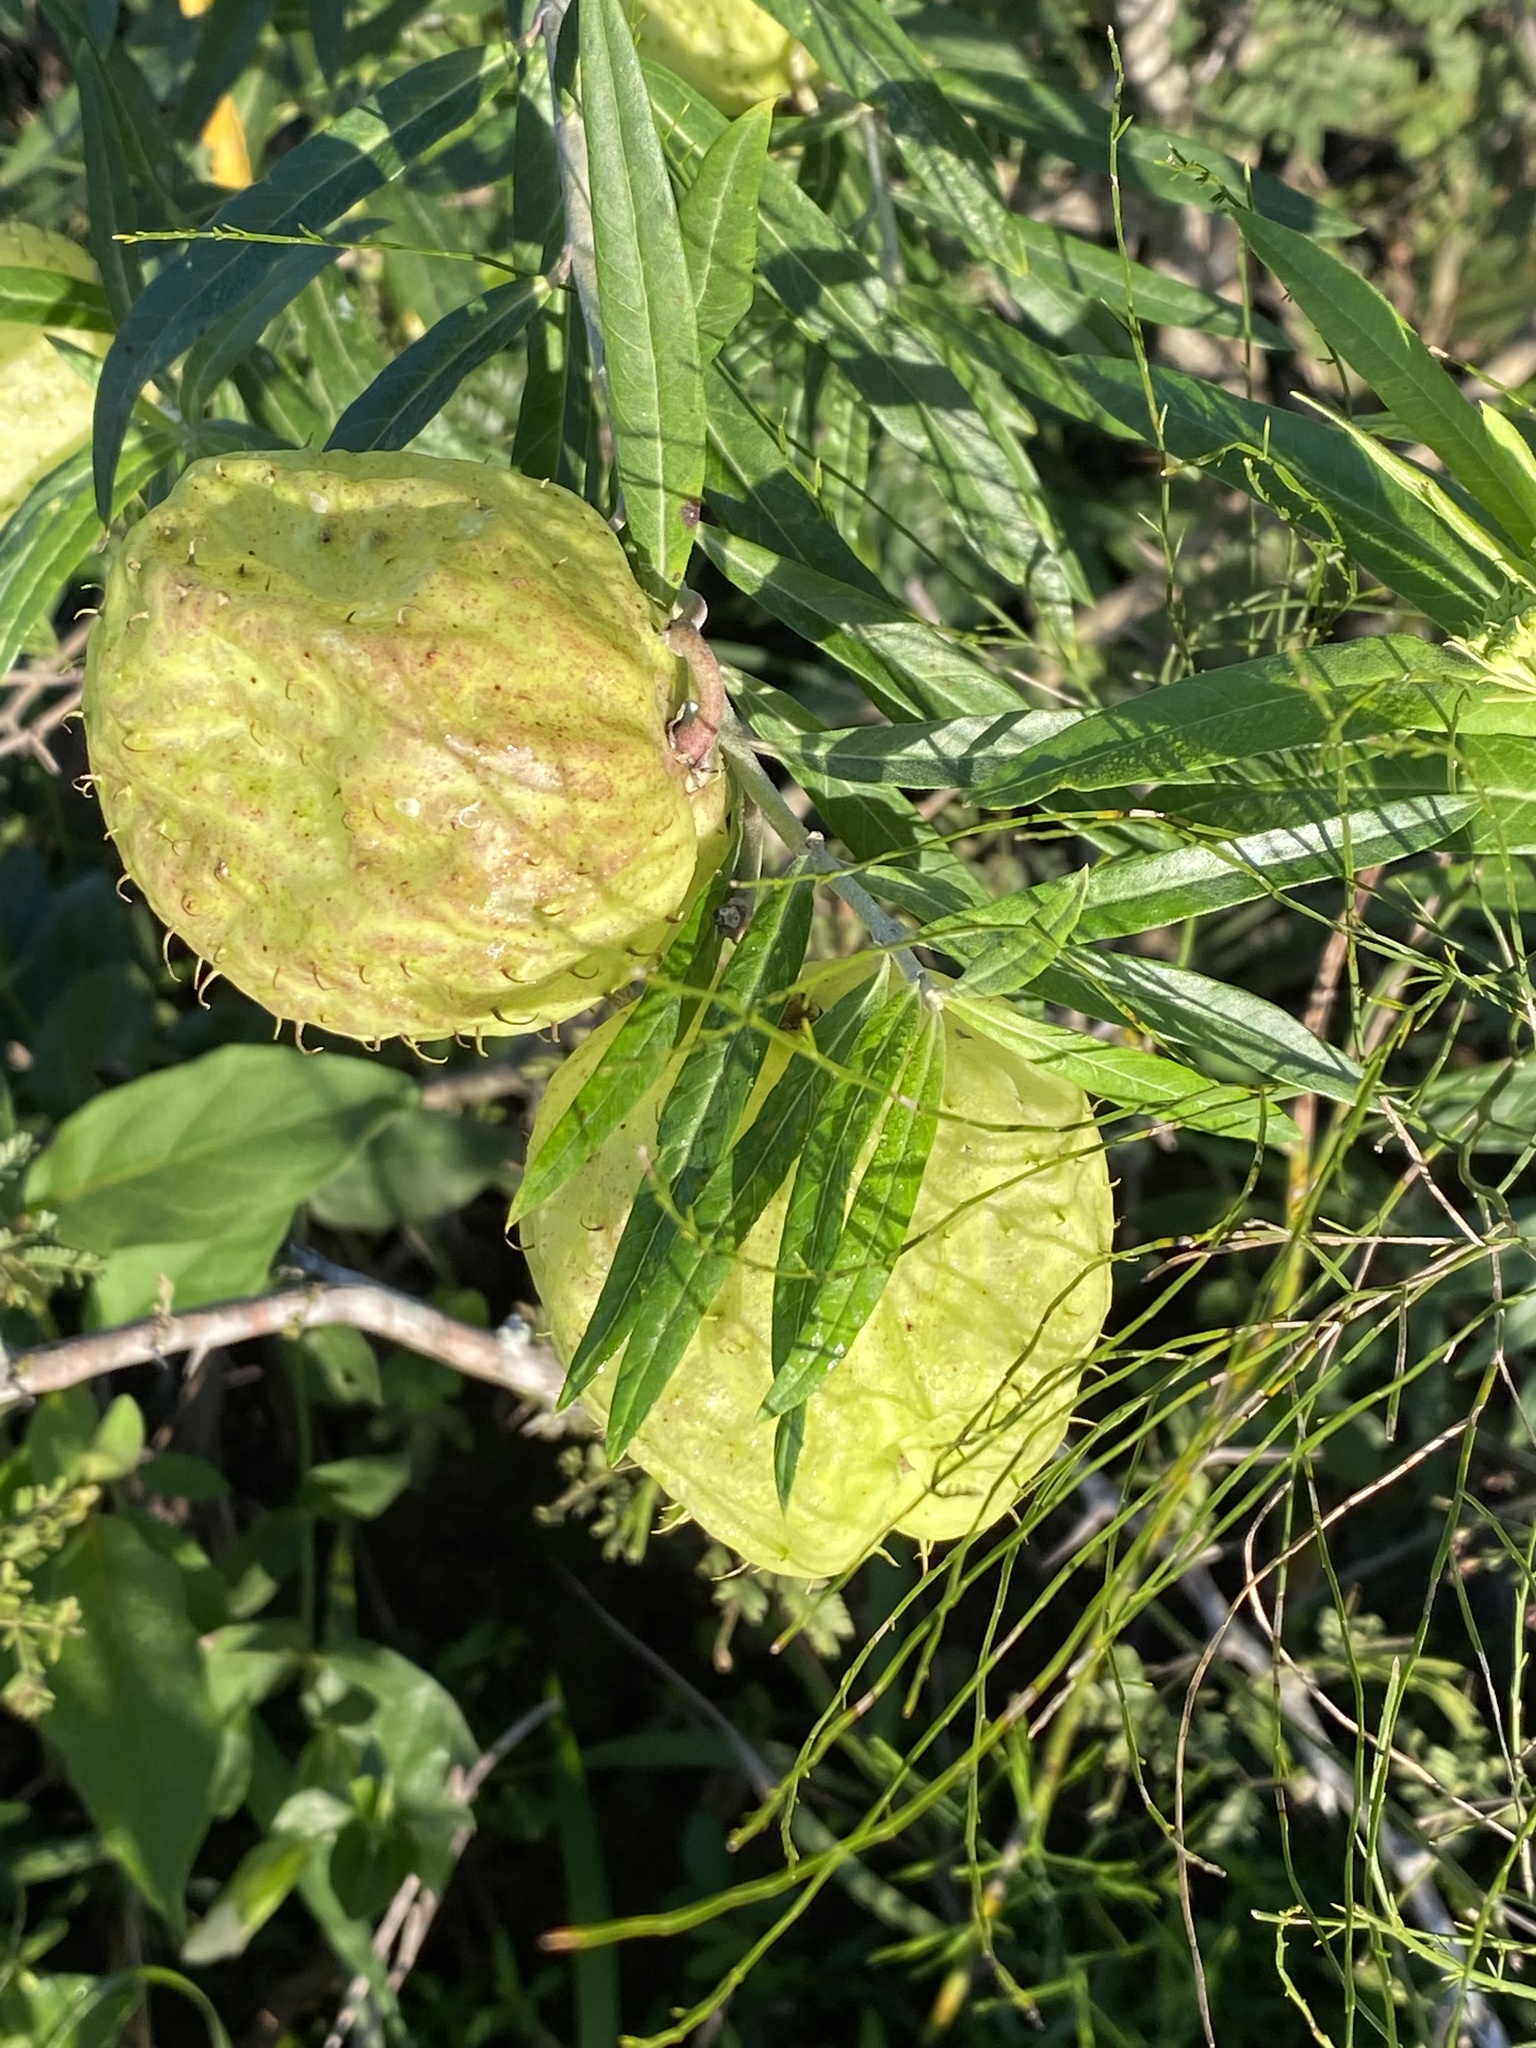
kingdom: Plantae
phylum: Tracheophyta
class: Magnoliopsida
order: Gentianales
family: Apocynaceae
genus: Gomphocarpus
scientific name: Gomphocarpus physocarpus
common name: Balloon cotton bush
